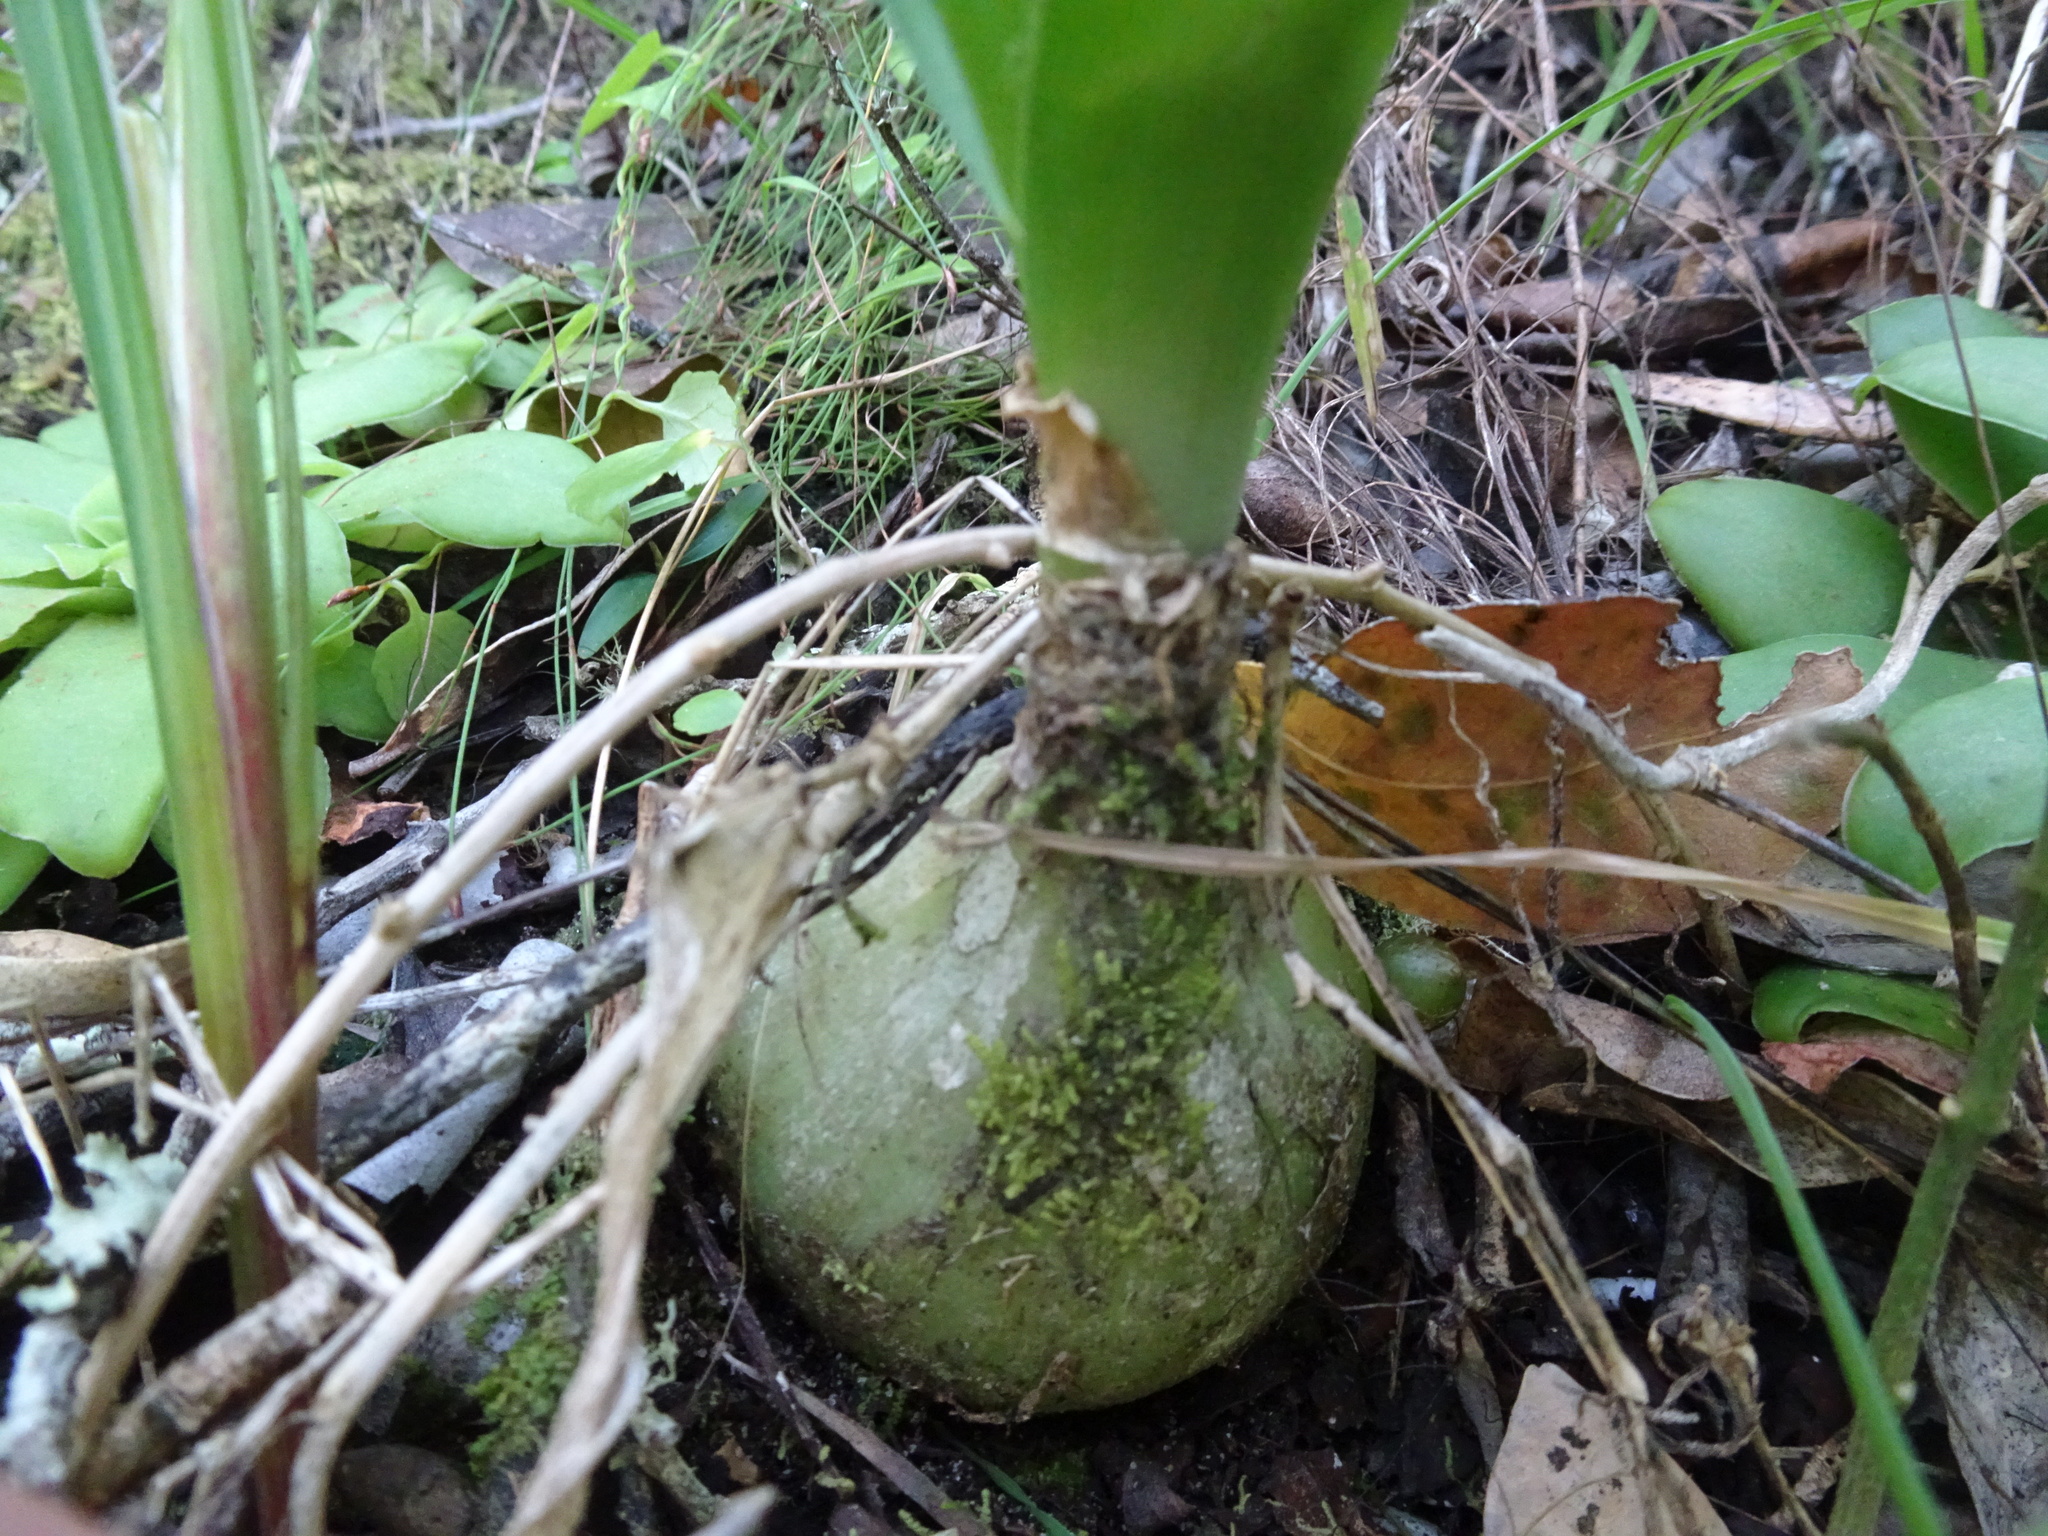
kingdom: Plantae
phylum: Tracheophyta
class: Liliopsida
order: Asparagales
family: Asparagaceae
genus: Albuca
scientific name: Albuca bracteata
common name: Sea-onion
